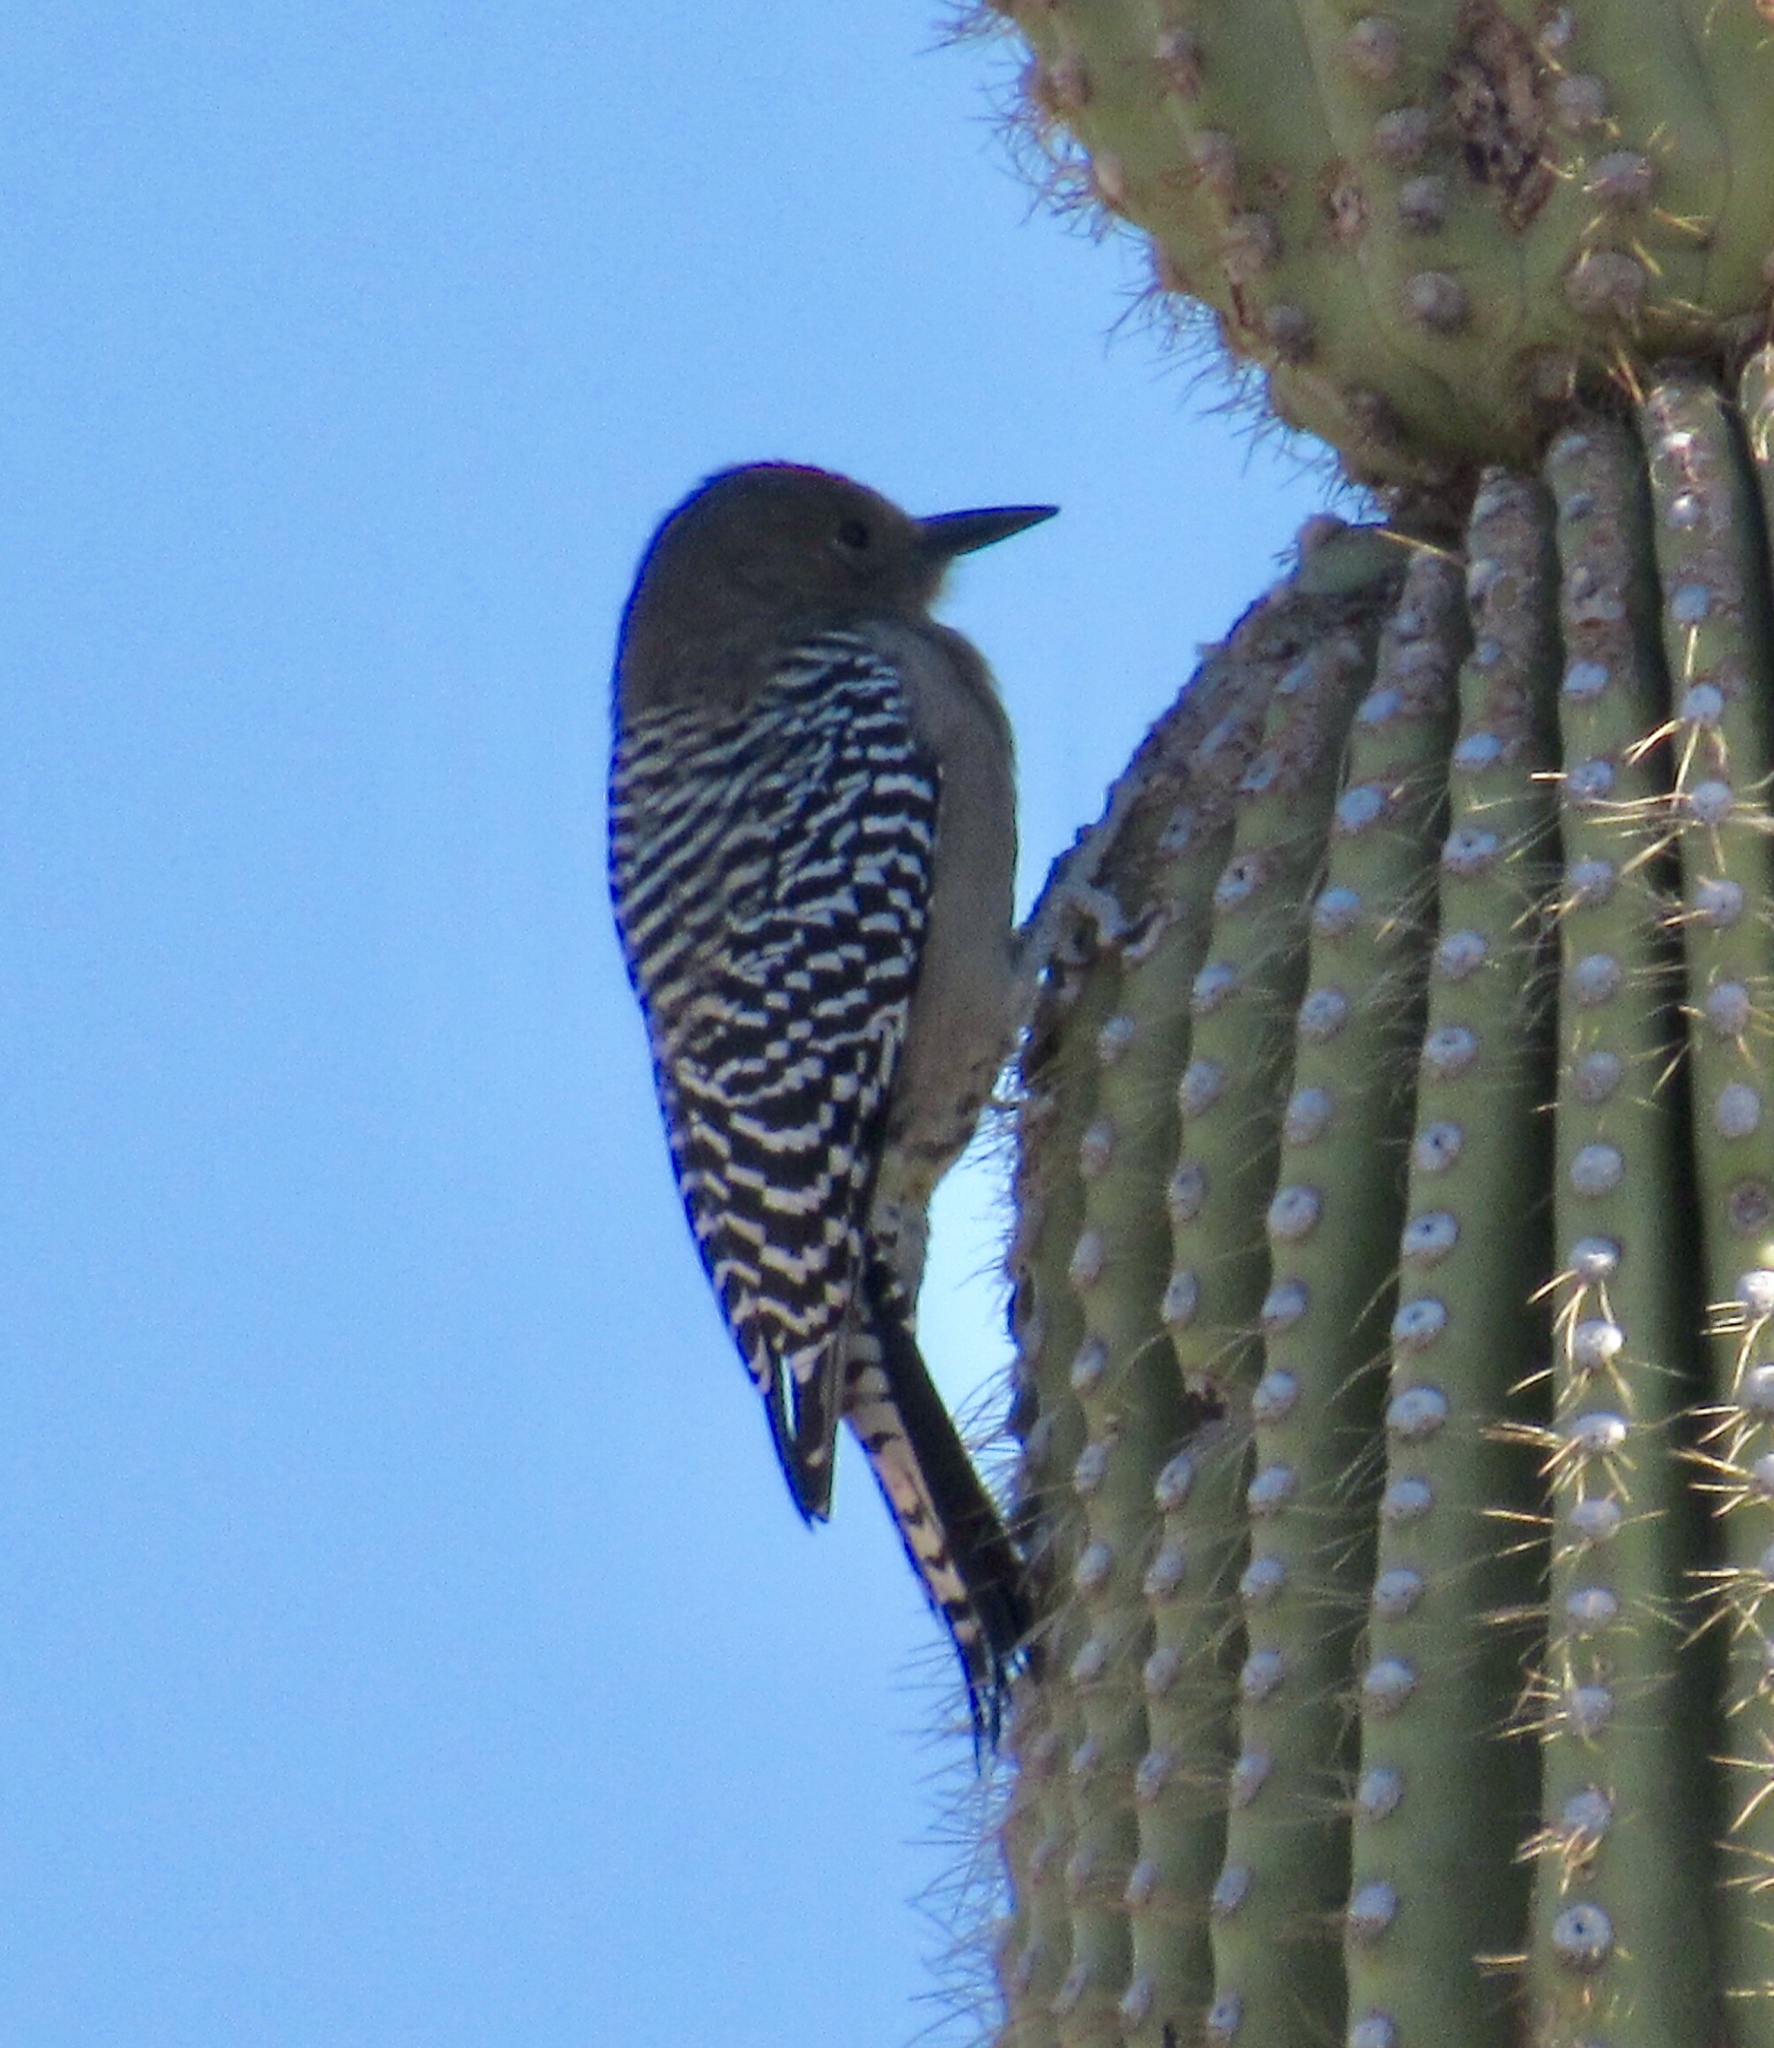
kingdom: Animalia
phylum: Chordata
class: Aves
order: Piciformes
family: Picidae
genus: Melanerpes
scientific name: Melanerpes uropygialis
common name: Gila woodpecker
